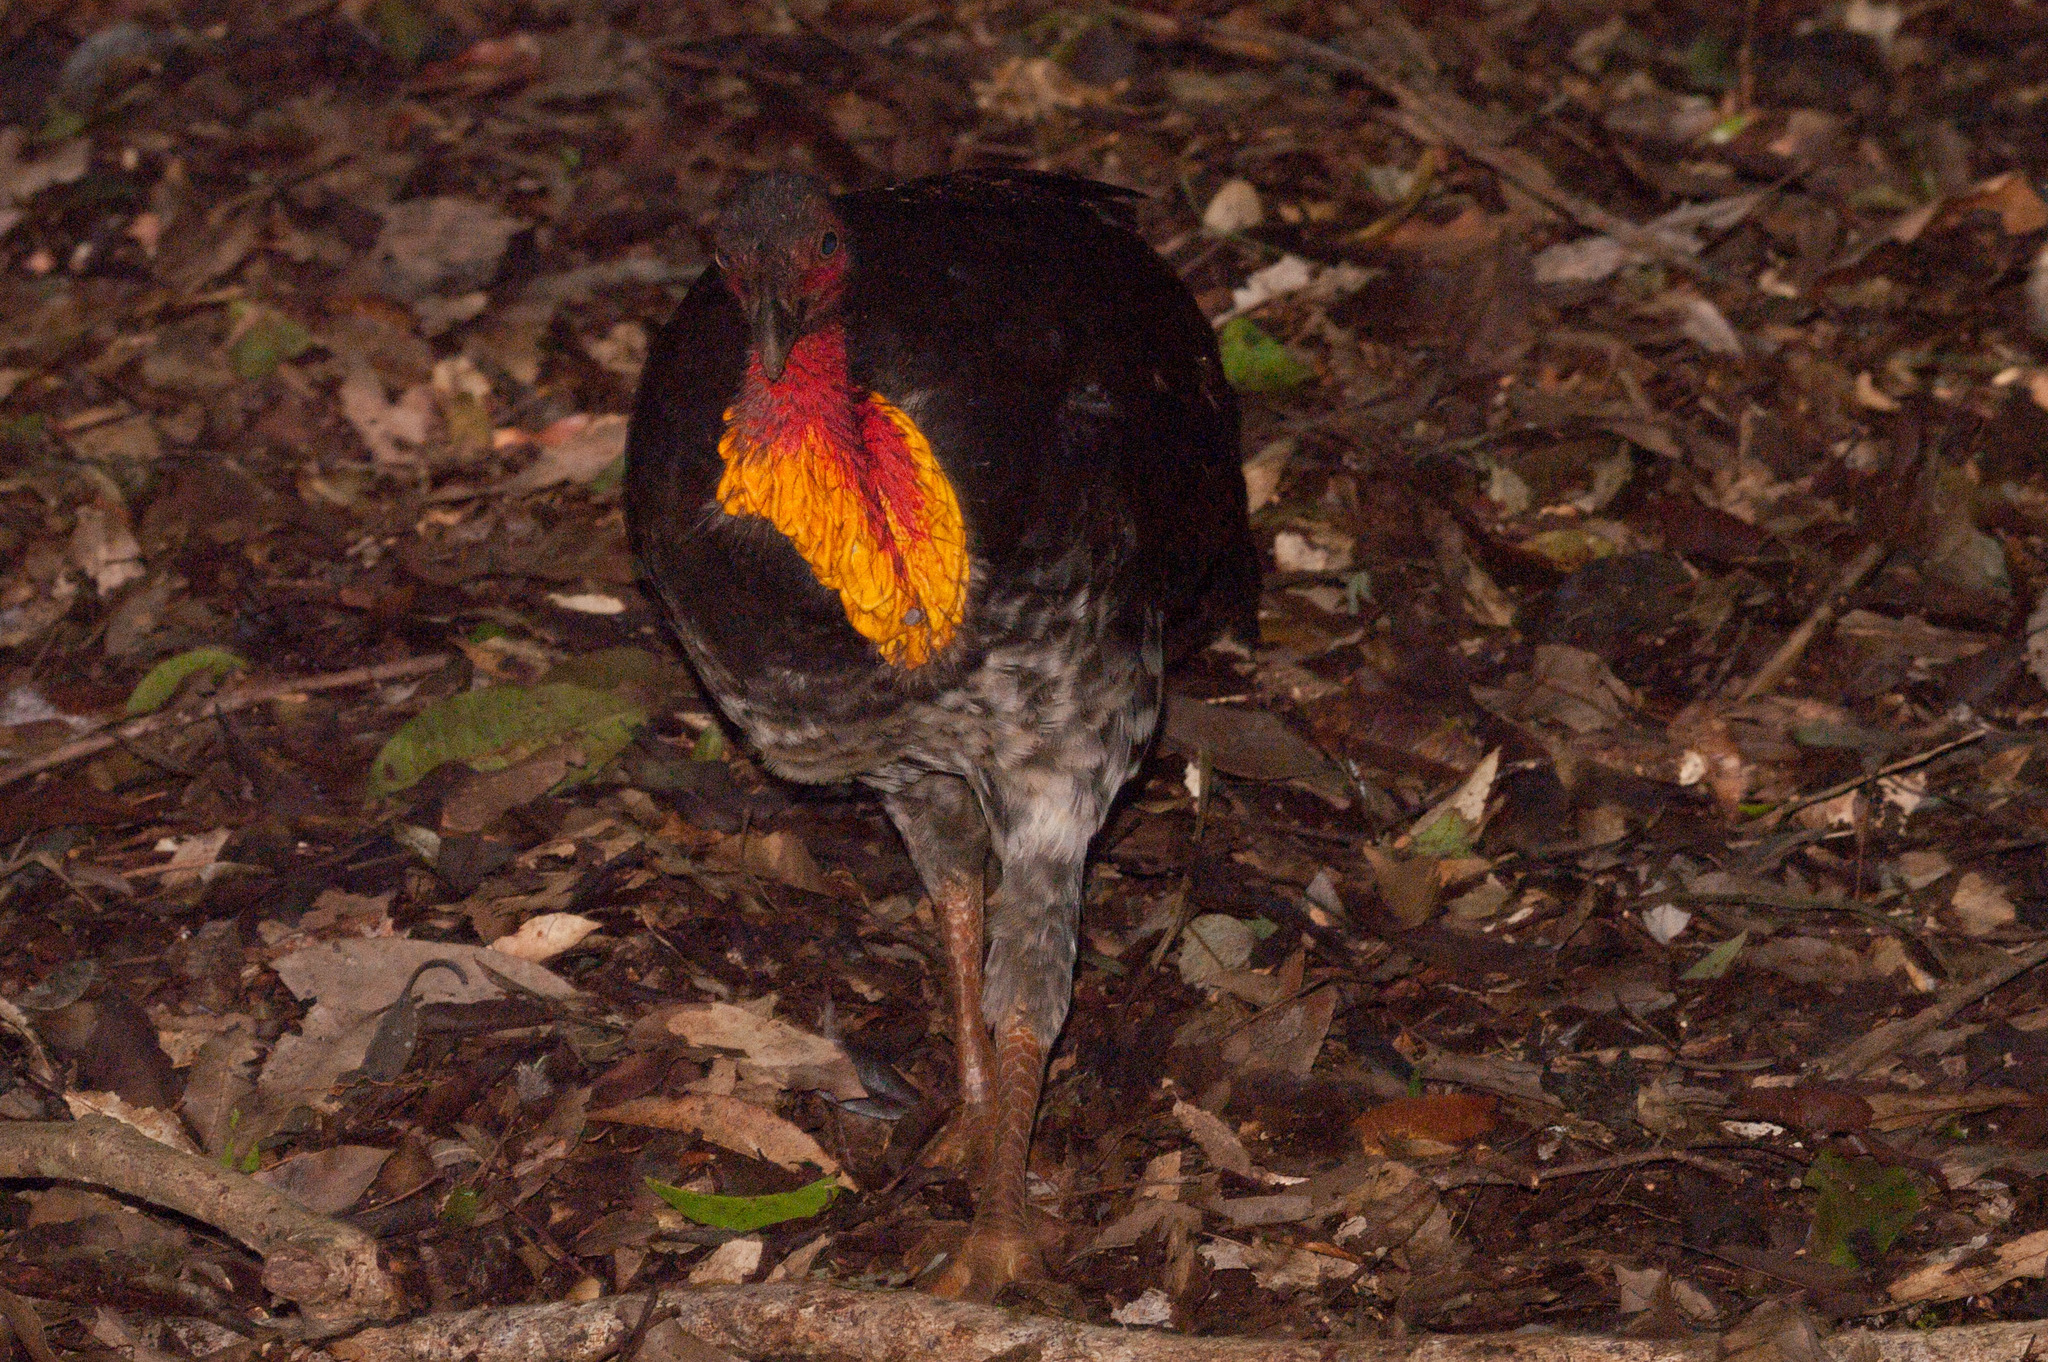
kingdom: Animalia
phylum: Chordata
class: Aves
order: Galliformes
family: Megapodiidae
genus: Alectura
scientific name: Alectura lathami
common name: Australian brushturkey
